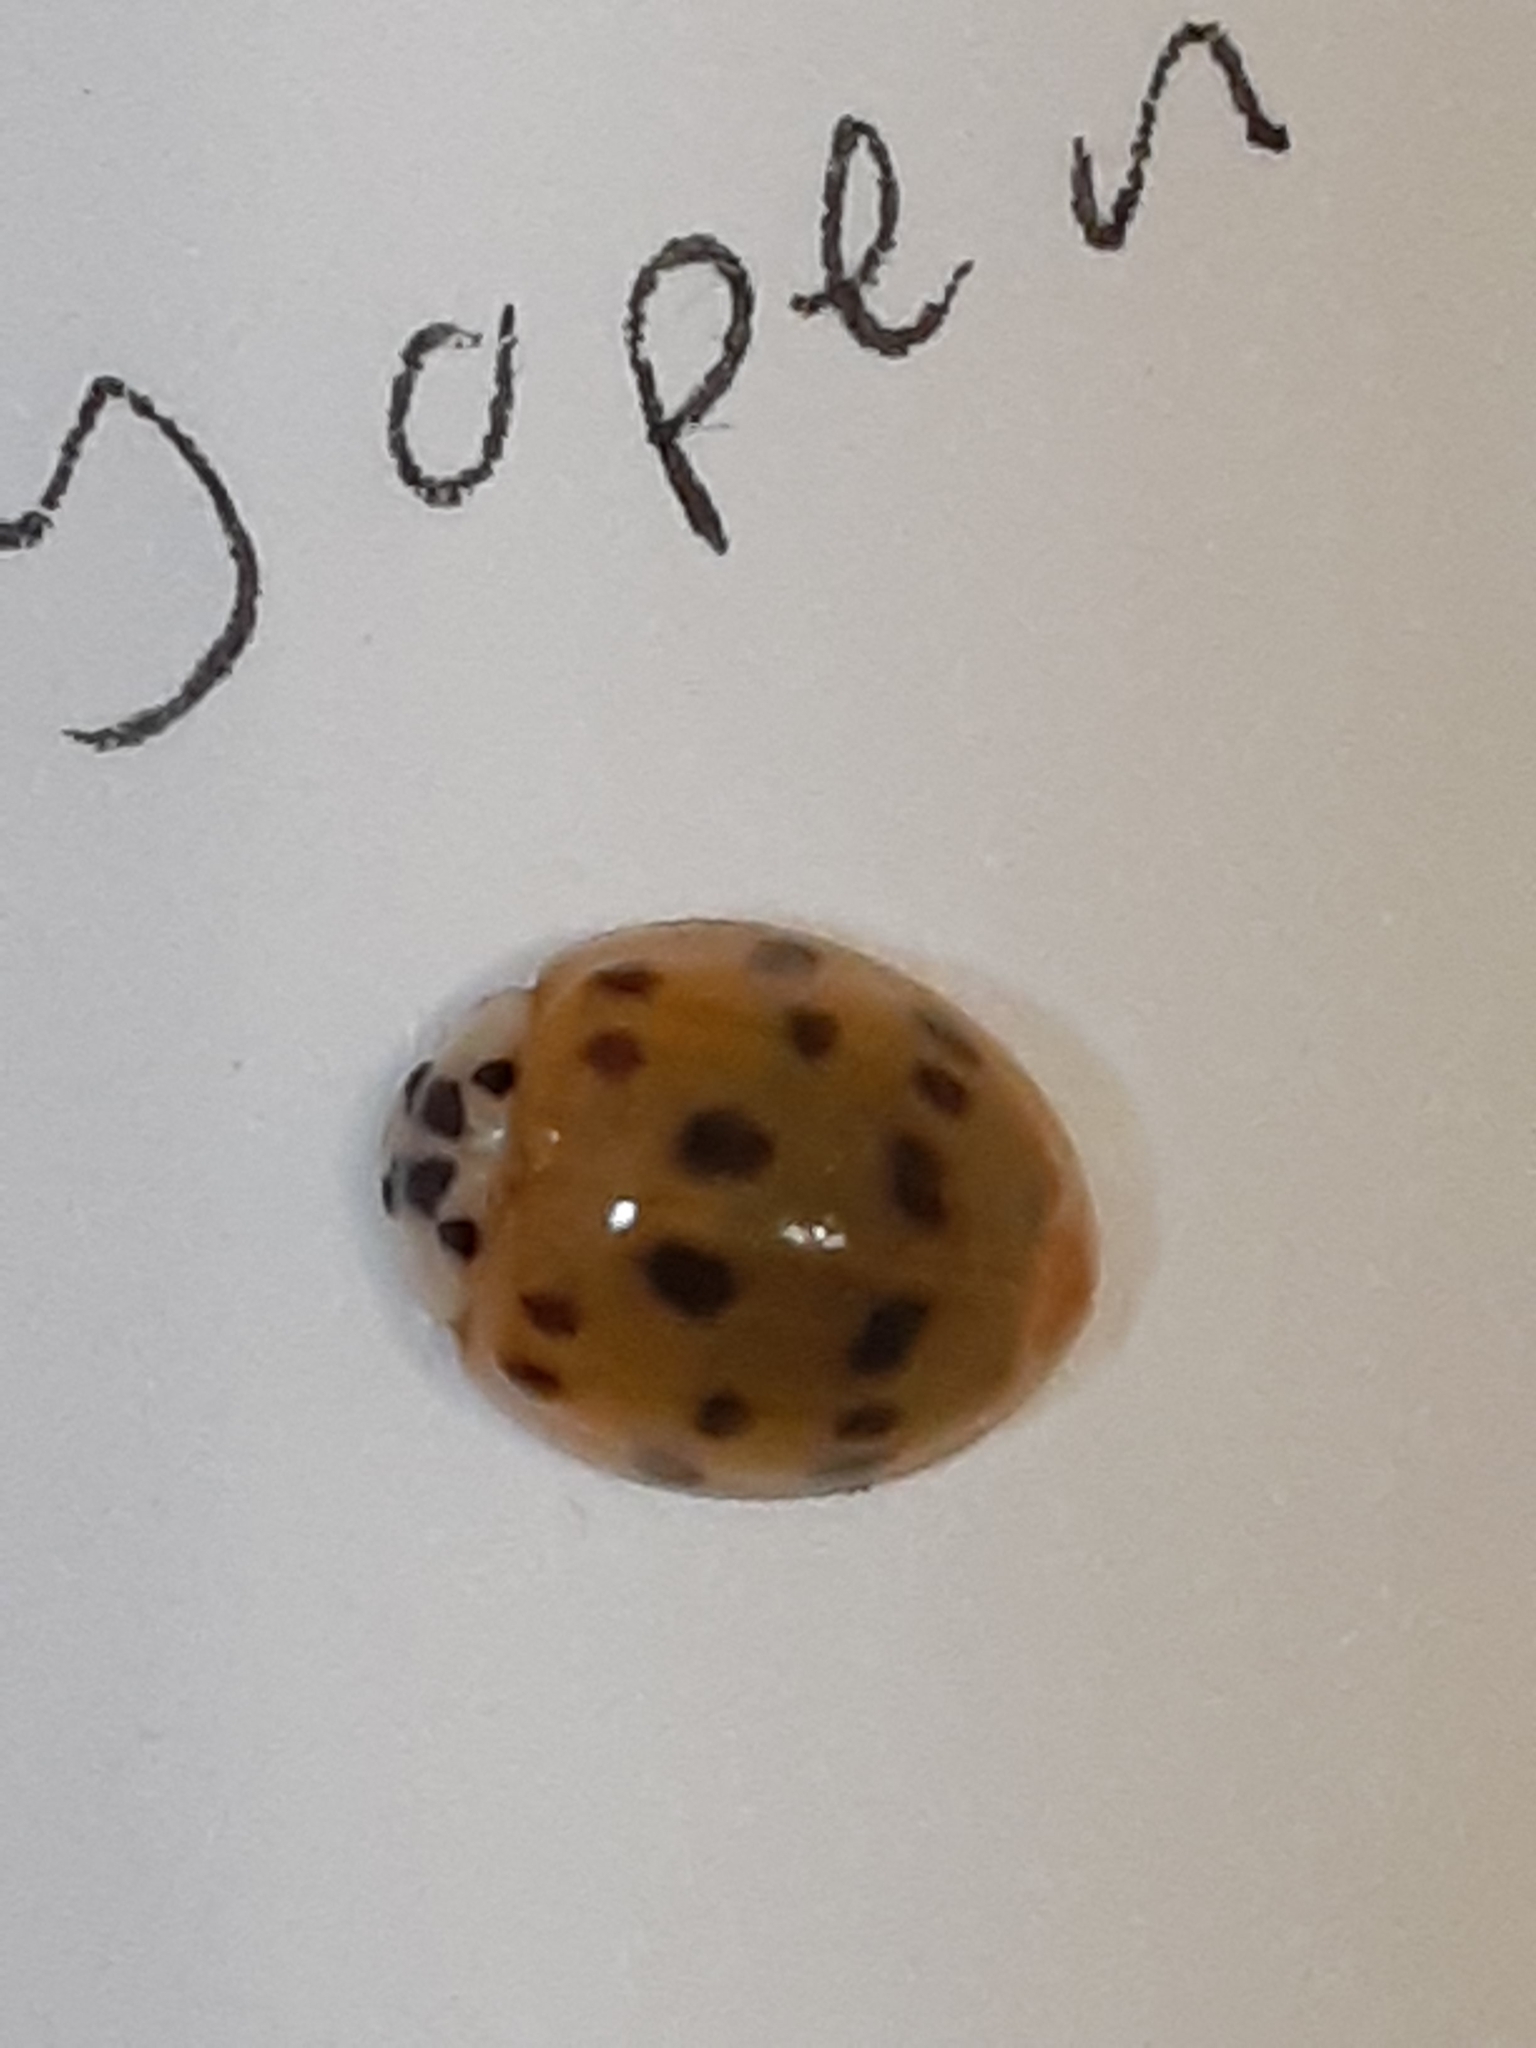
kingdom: Animalia
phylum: Arthropoda
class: Insecta
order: Coleoptera
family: Coccinellidae
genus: Harmonia
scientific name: Harmonia axyridis
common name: Harlequin ladybird
